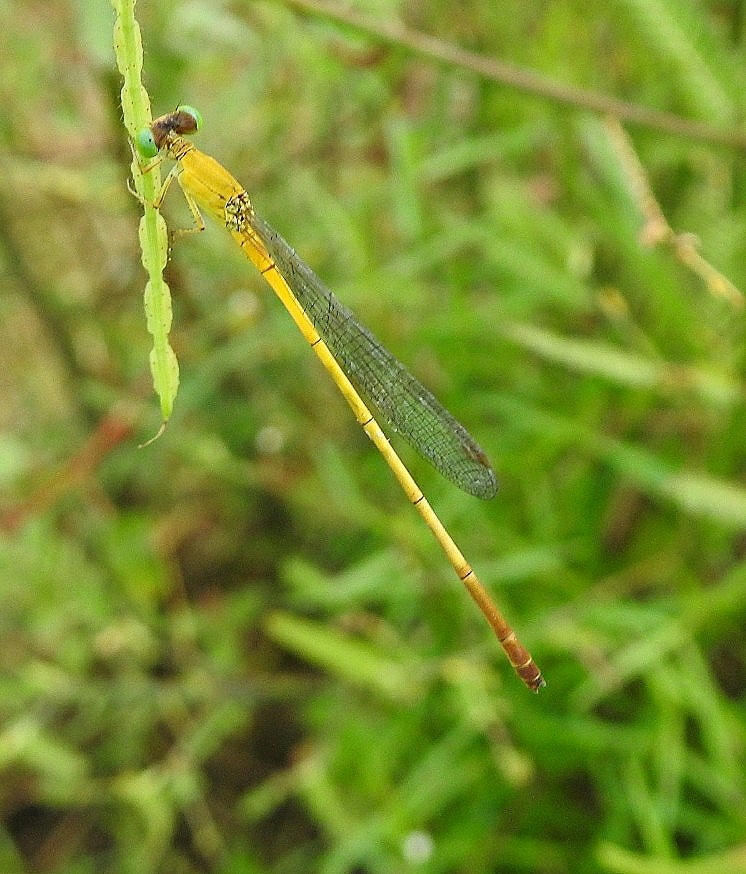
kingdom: Animalia
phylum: Arthropoda
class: Insecta
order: Odonata
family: Coenagrionidae
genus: Ceriagrion
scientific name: Ceriagrion chromothorax
